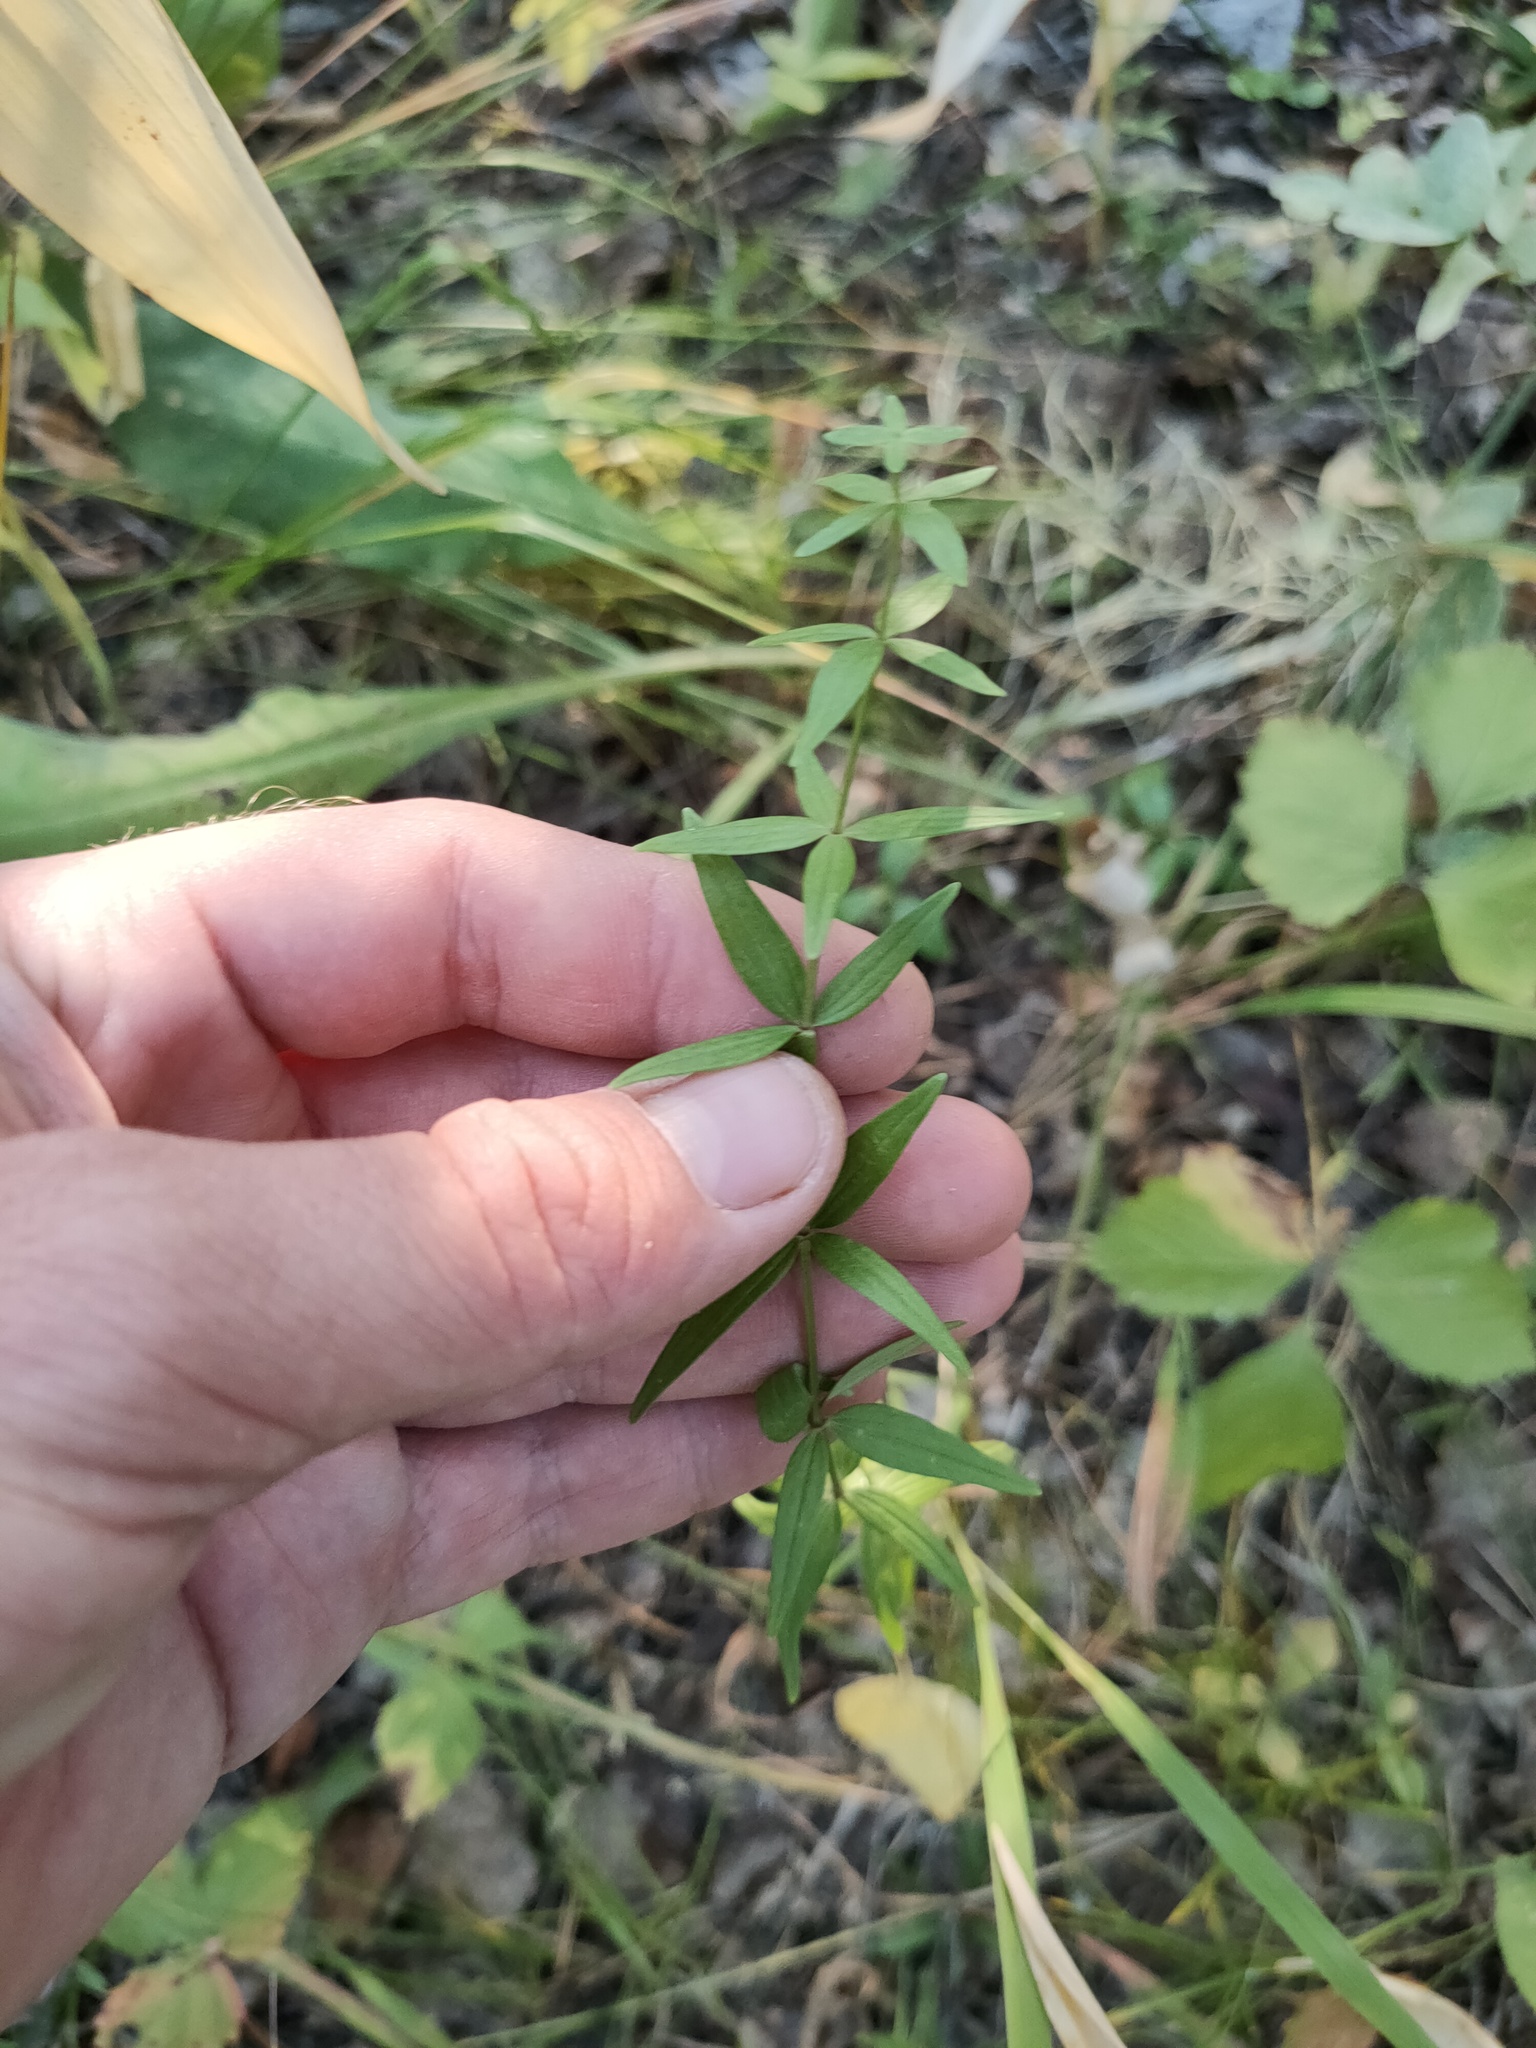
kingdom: Plantae
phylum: Tracheophyta
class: Magnoliopsida
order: Gentianales
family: Rubiaceae
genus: Galium
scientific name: Galium boreale
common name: Northern bedstraw
